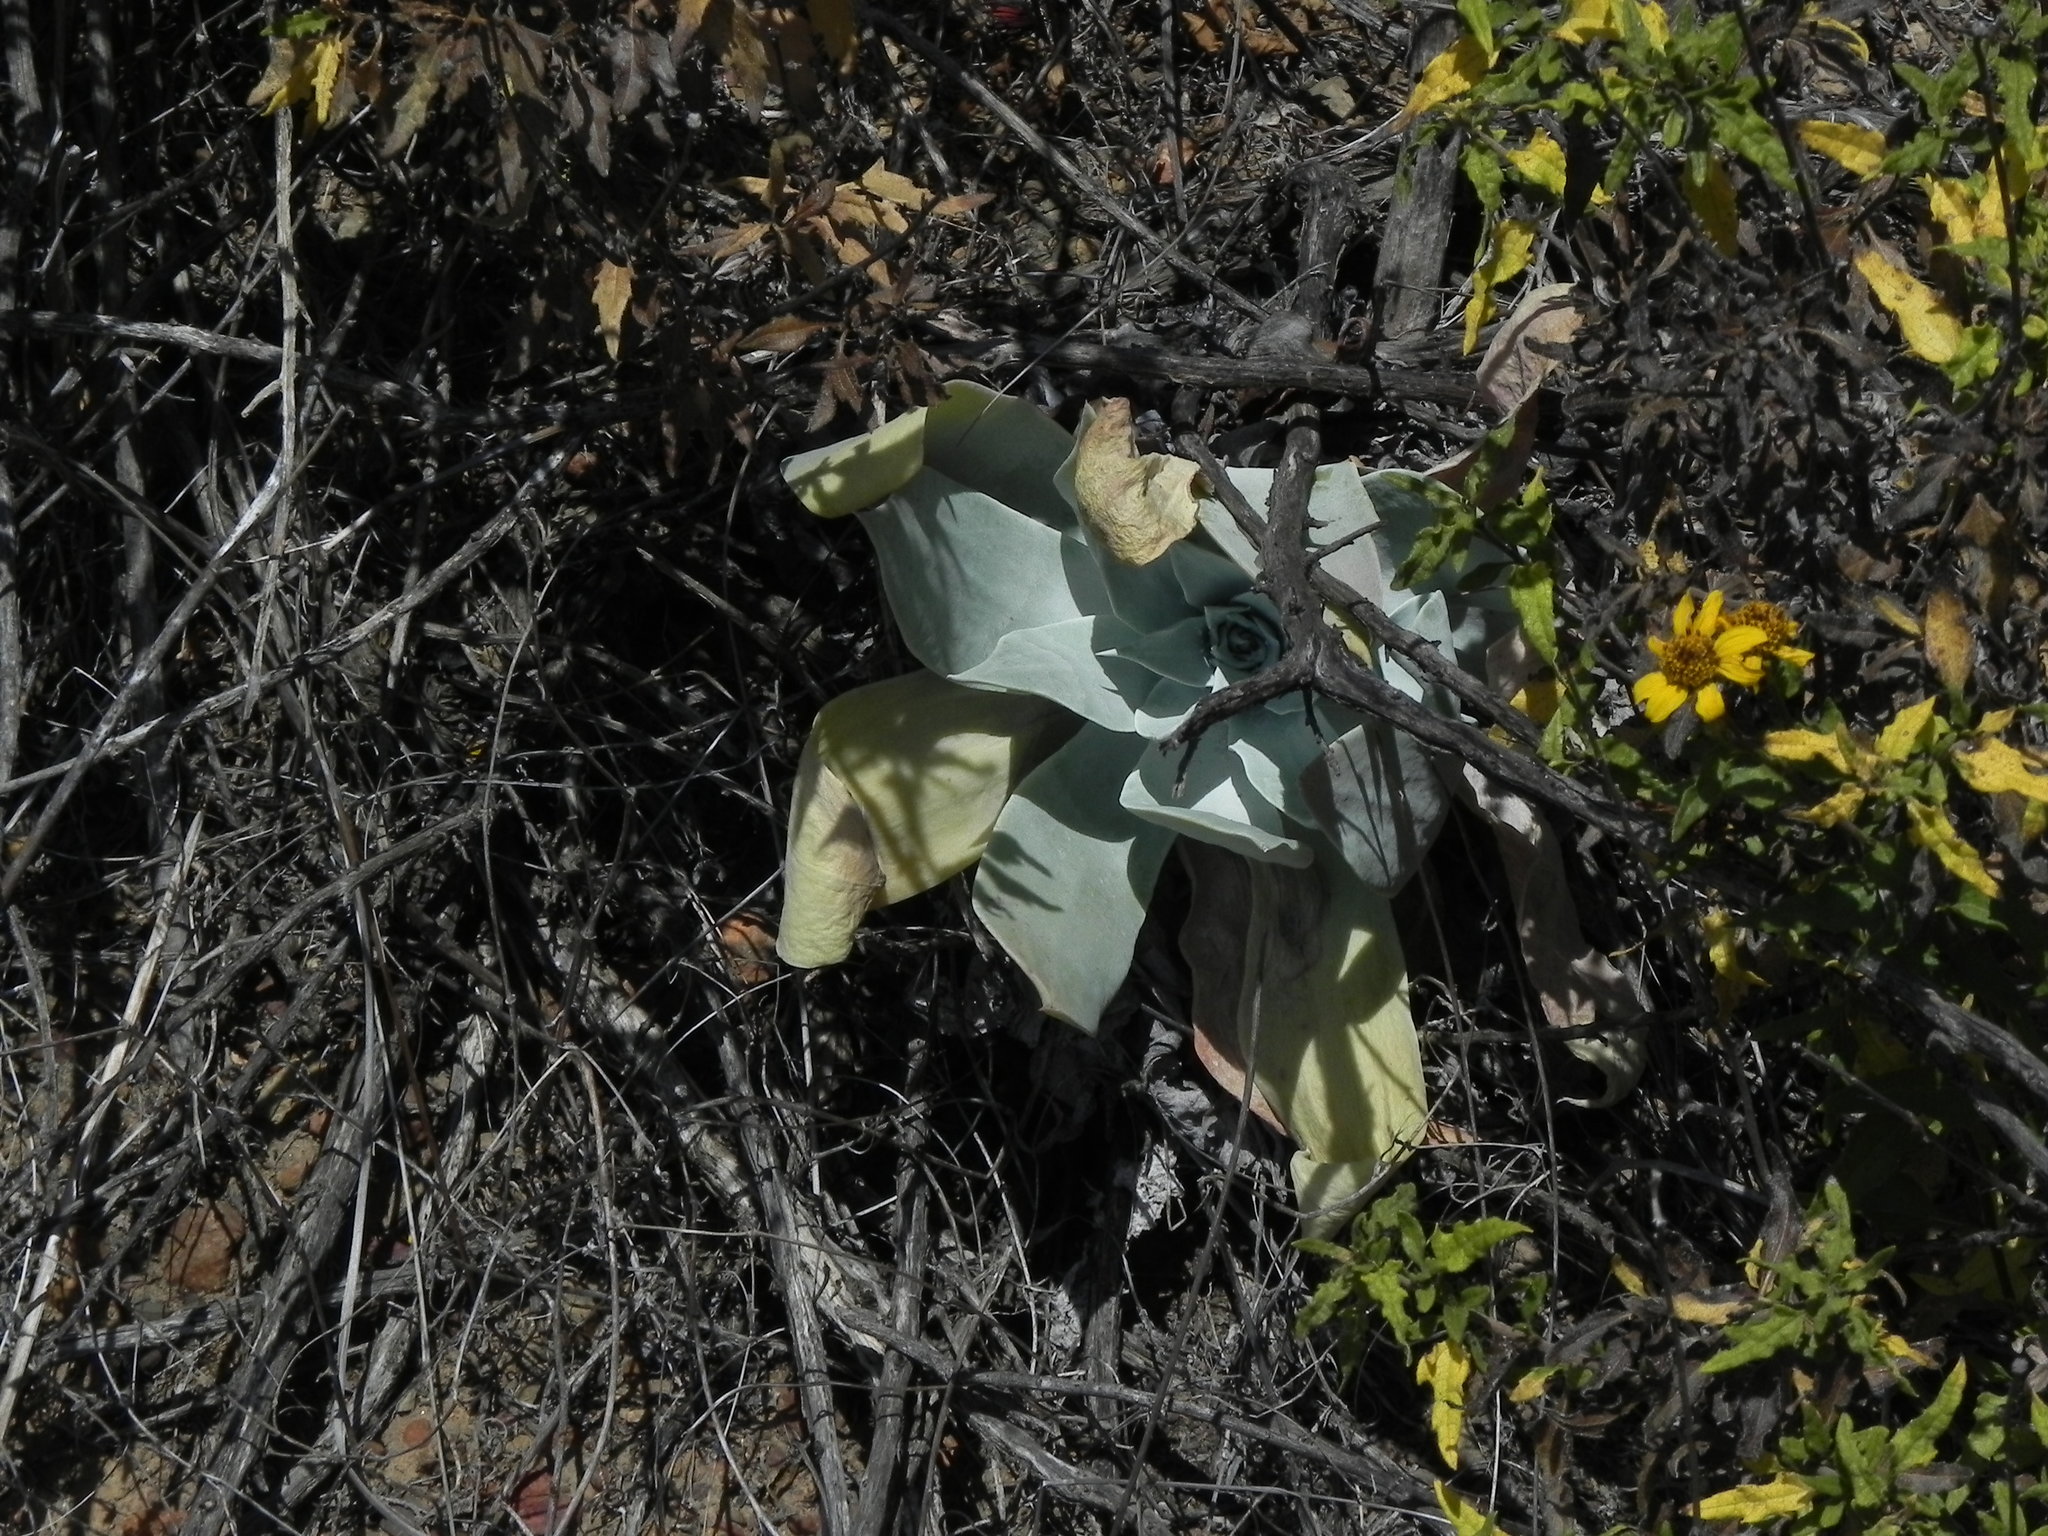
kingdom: Plantae
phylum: Tracheophyta
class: Magnoliopsida
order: Saxifragales
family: Crassulaceae
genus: Dudleya
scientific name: Dudleya pulverulenta
